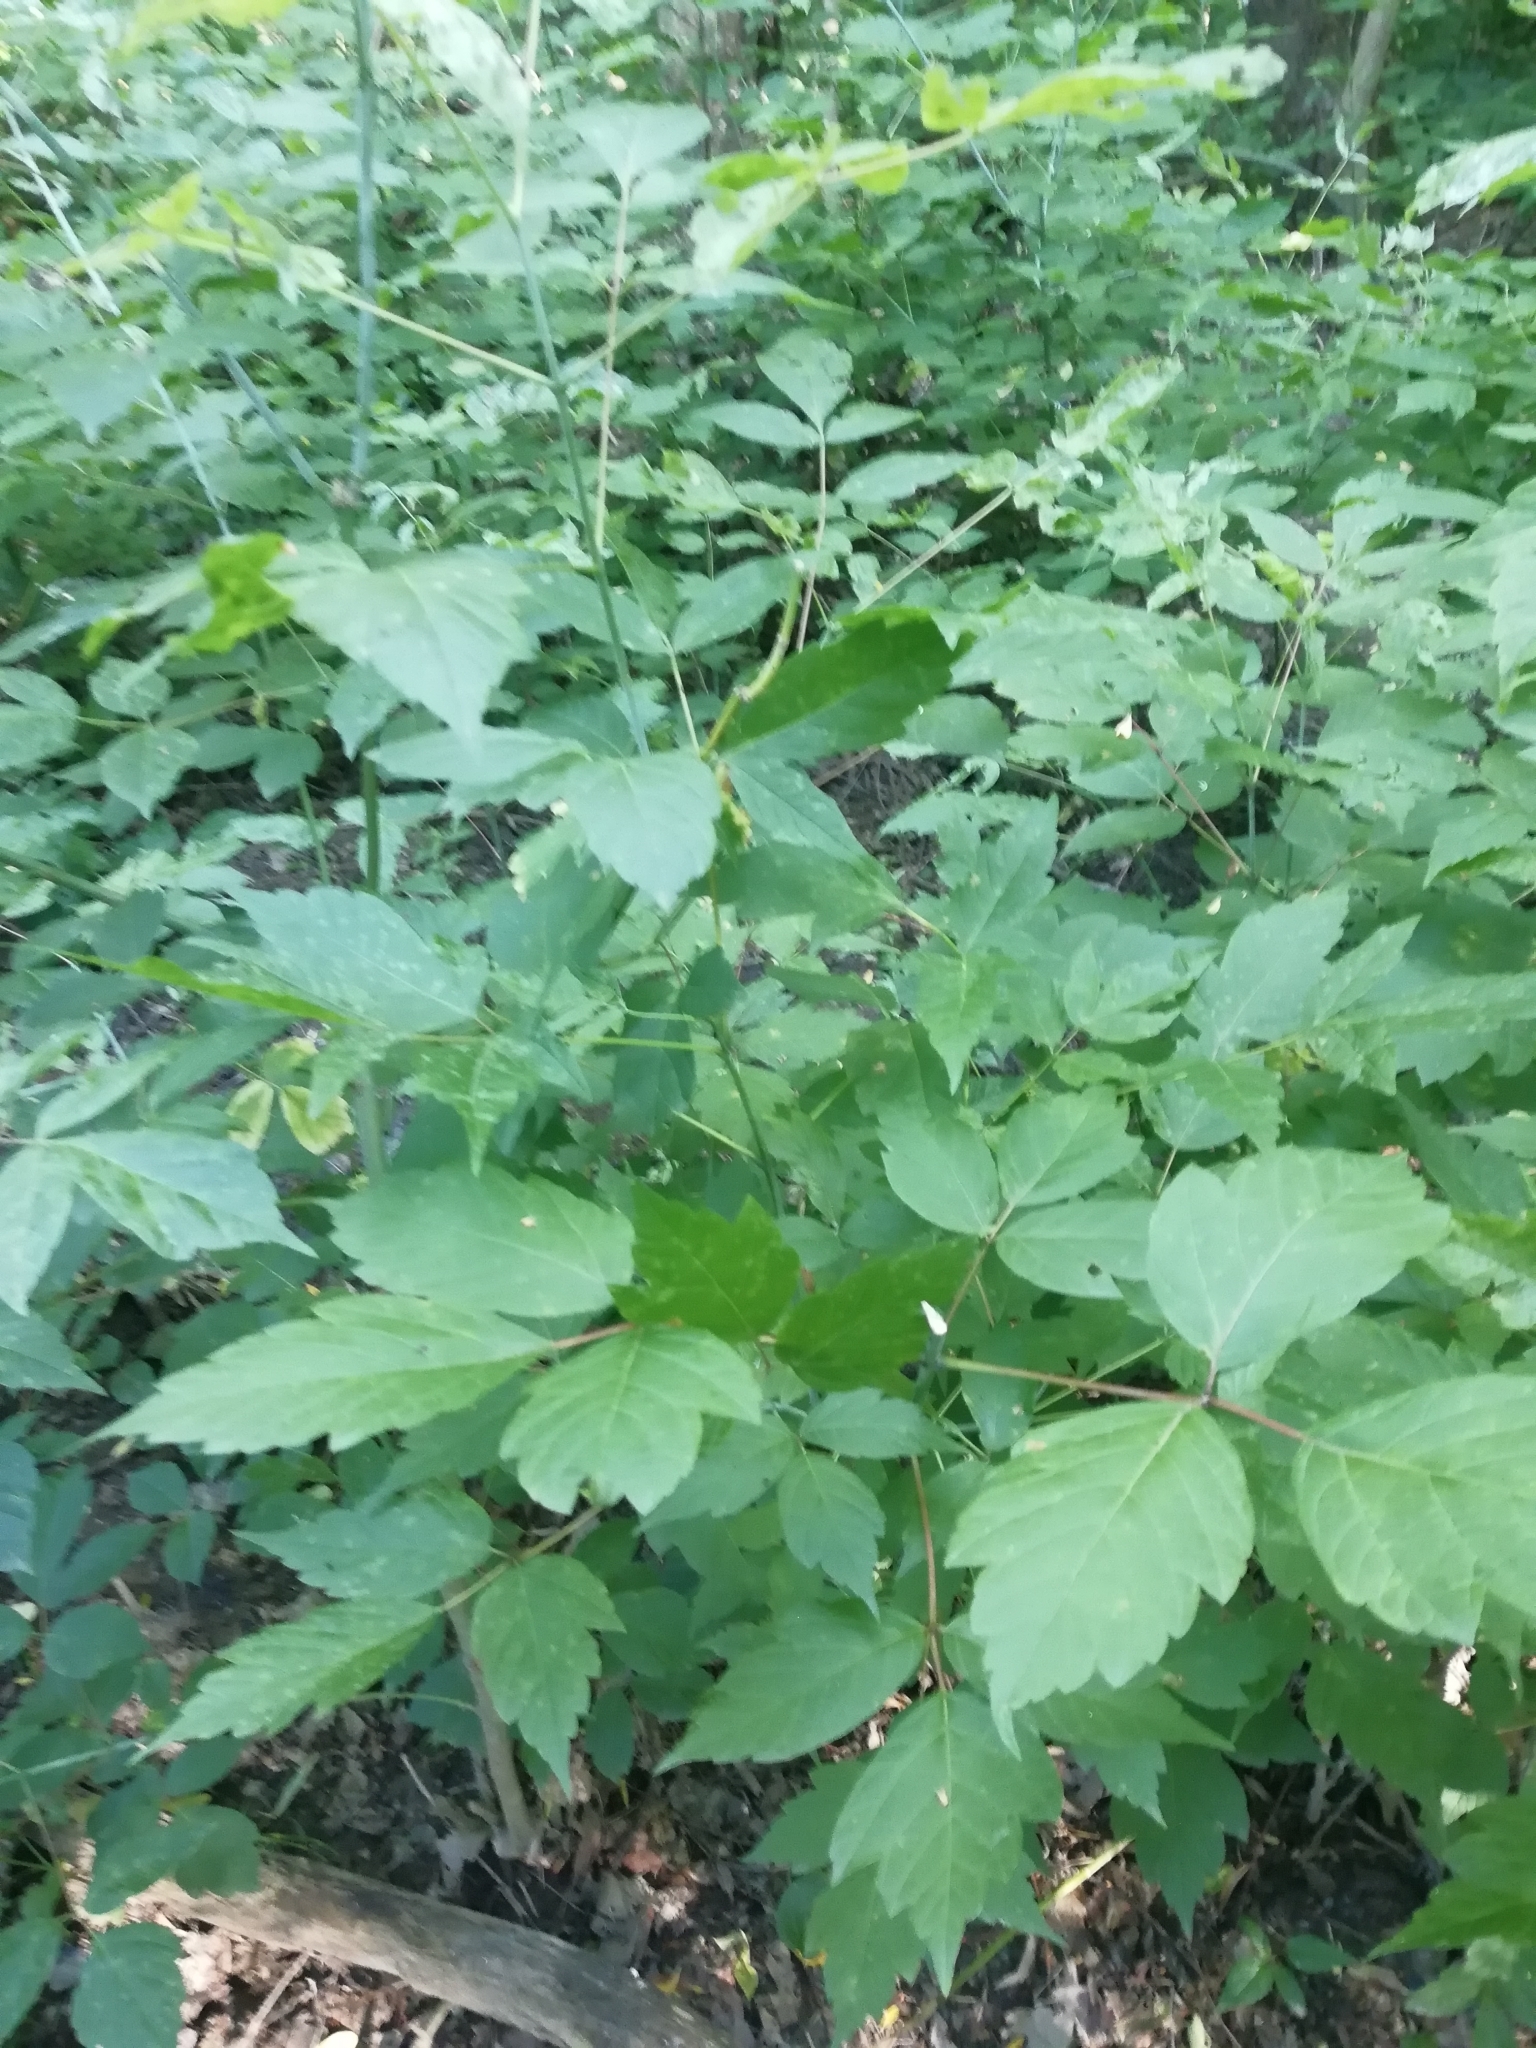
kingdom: Plantae
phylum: Tracheophyta
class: Magnoliopsida
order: Sapindales
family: Sapindaceae
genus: Acer
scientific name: Acer negundo
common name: Ashleaf maple
